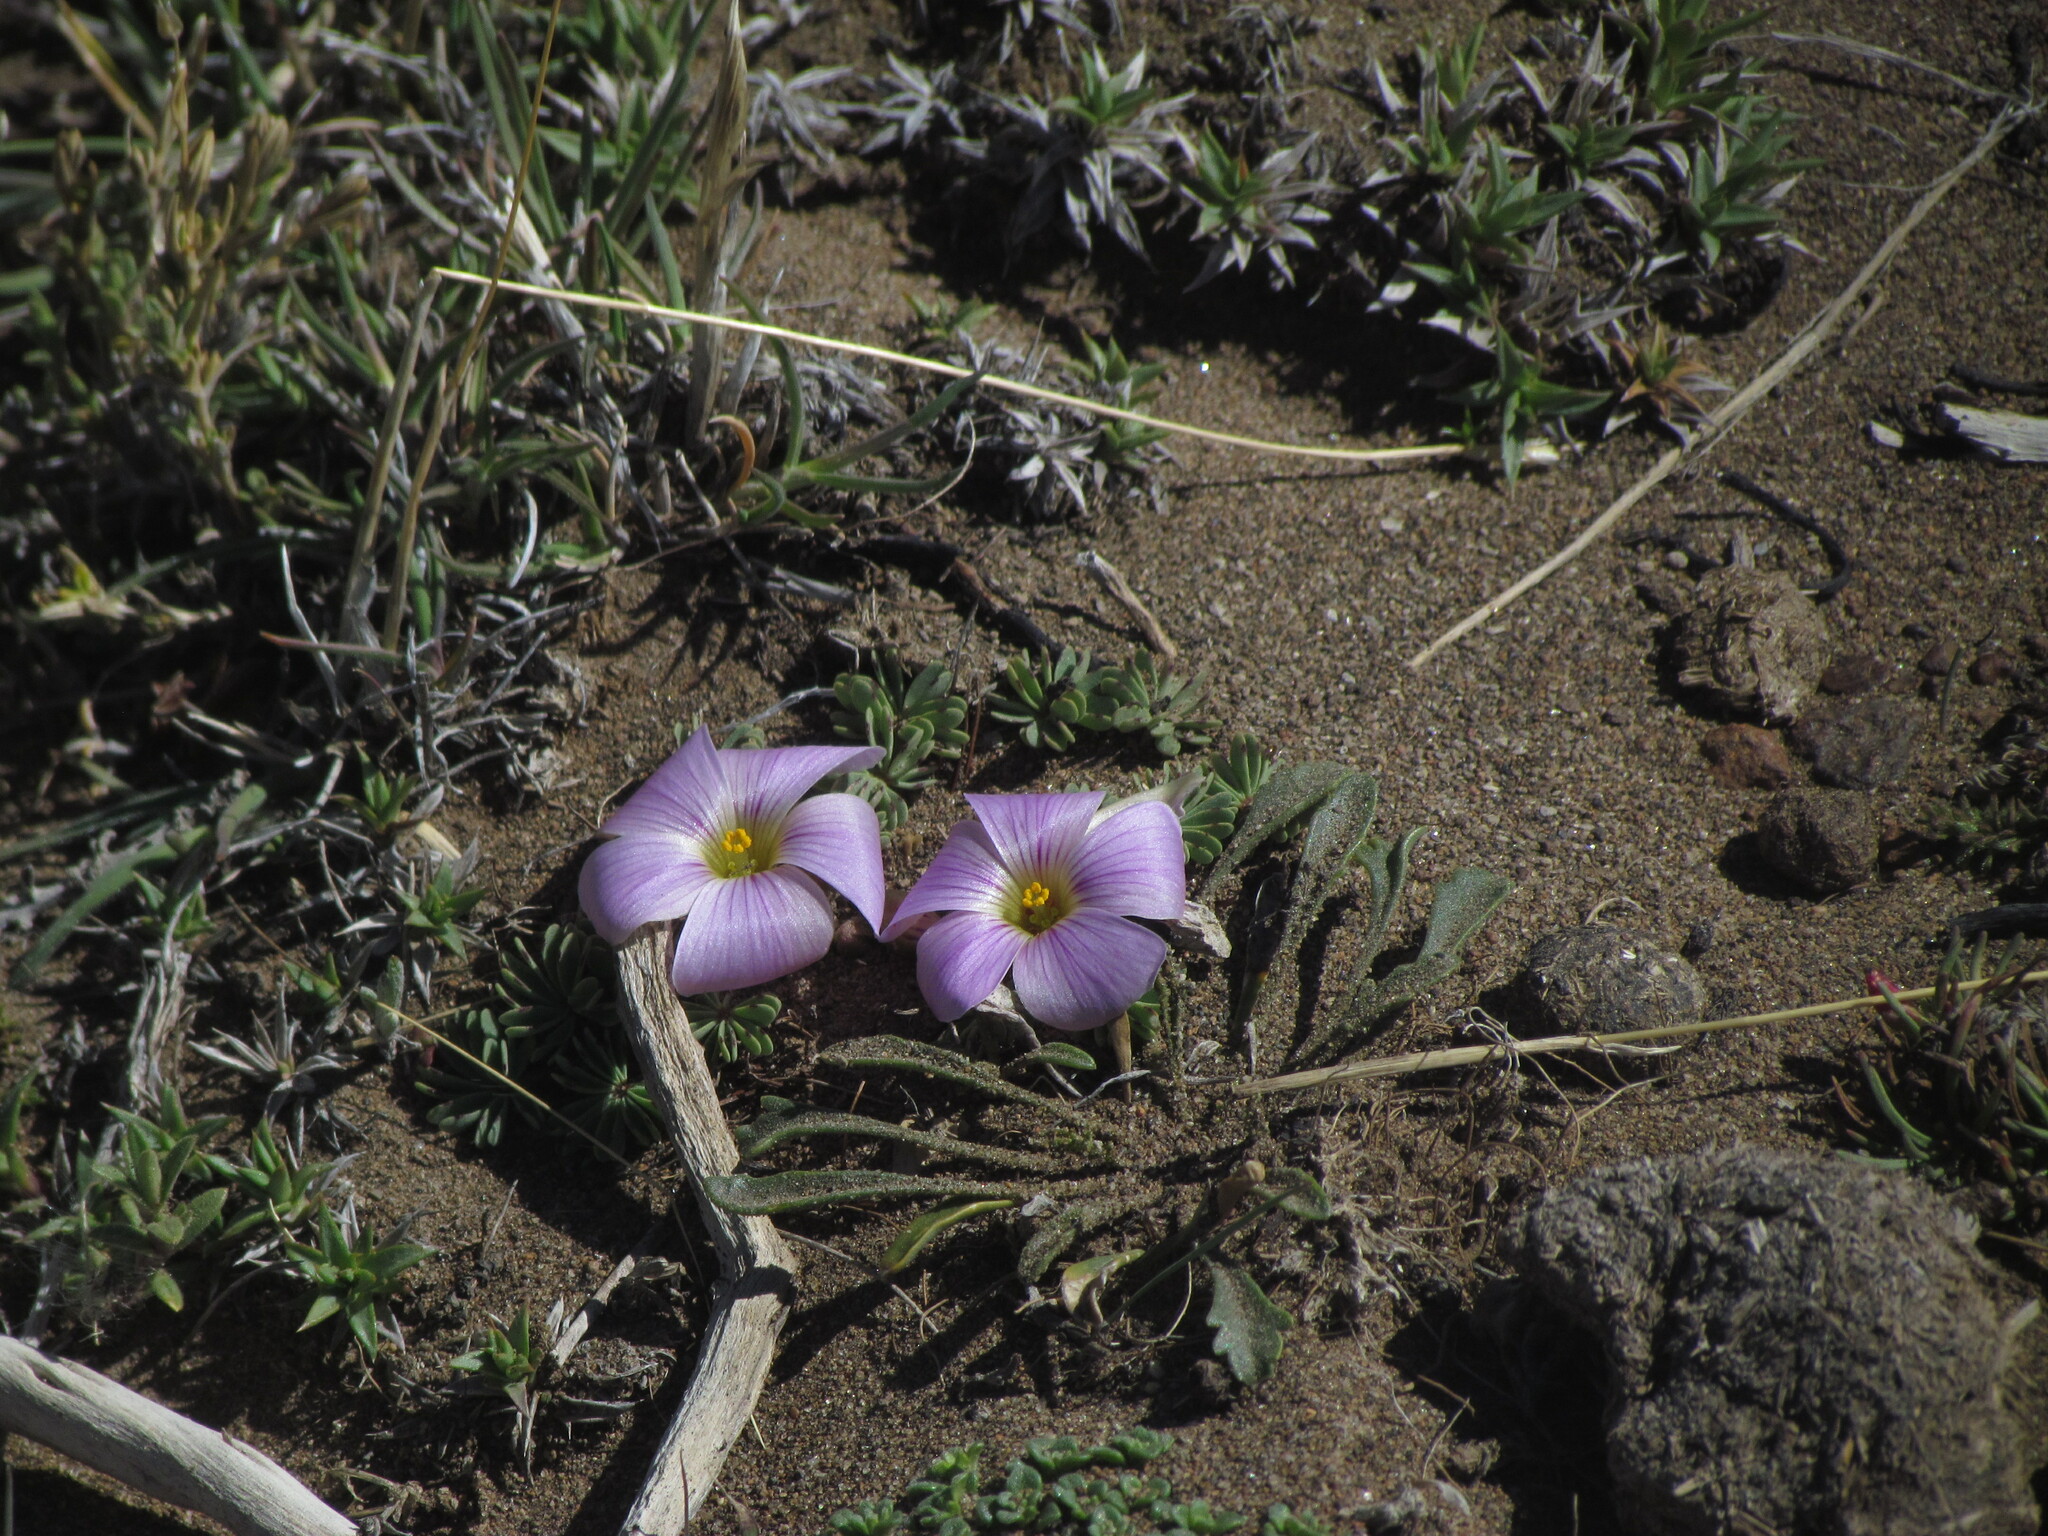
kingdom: Plantae
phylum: Tracheophyta
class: Magnoliopsida
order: Oxalidales
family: Oxalidaceae
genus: Oxalis
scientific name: Oxalis enneaphylla
